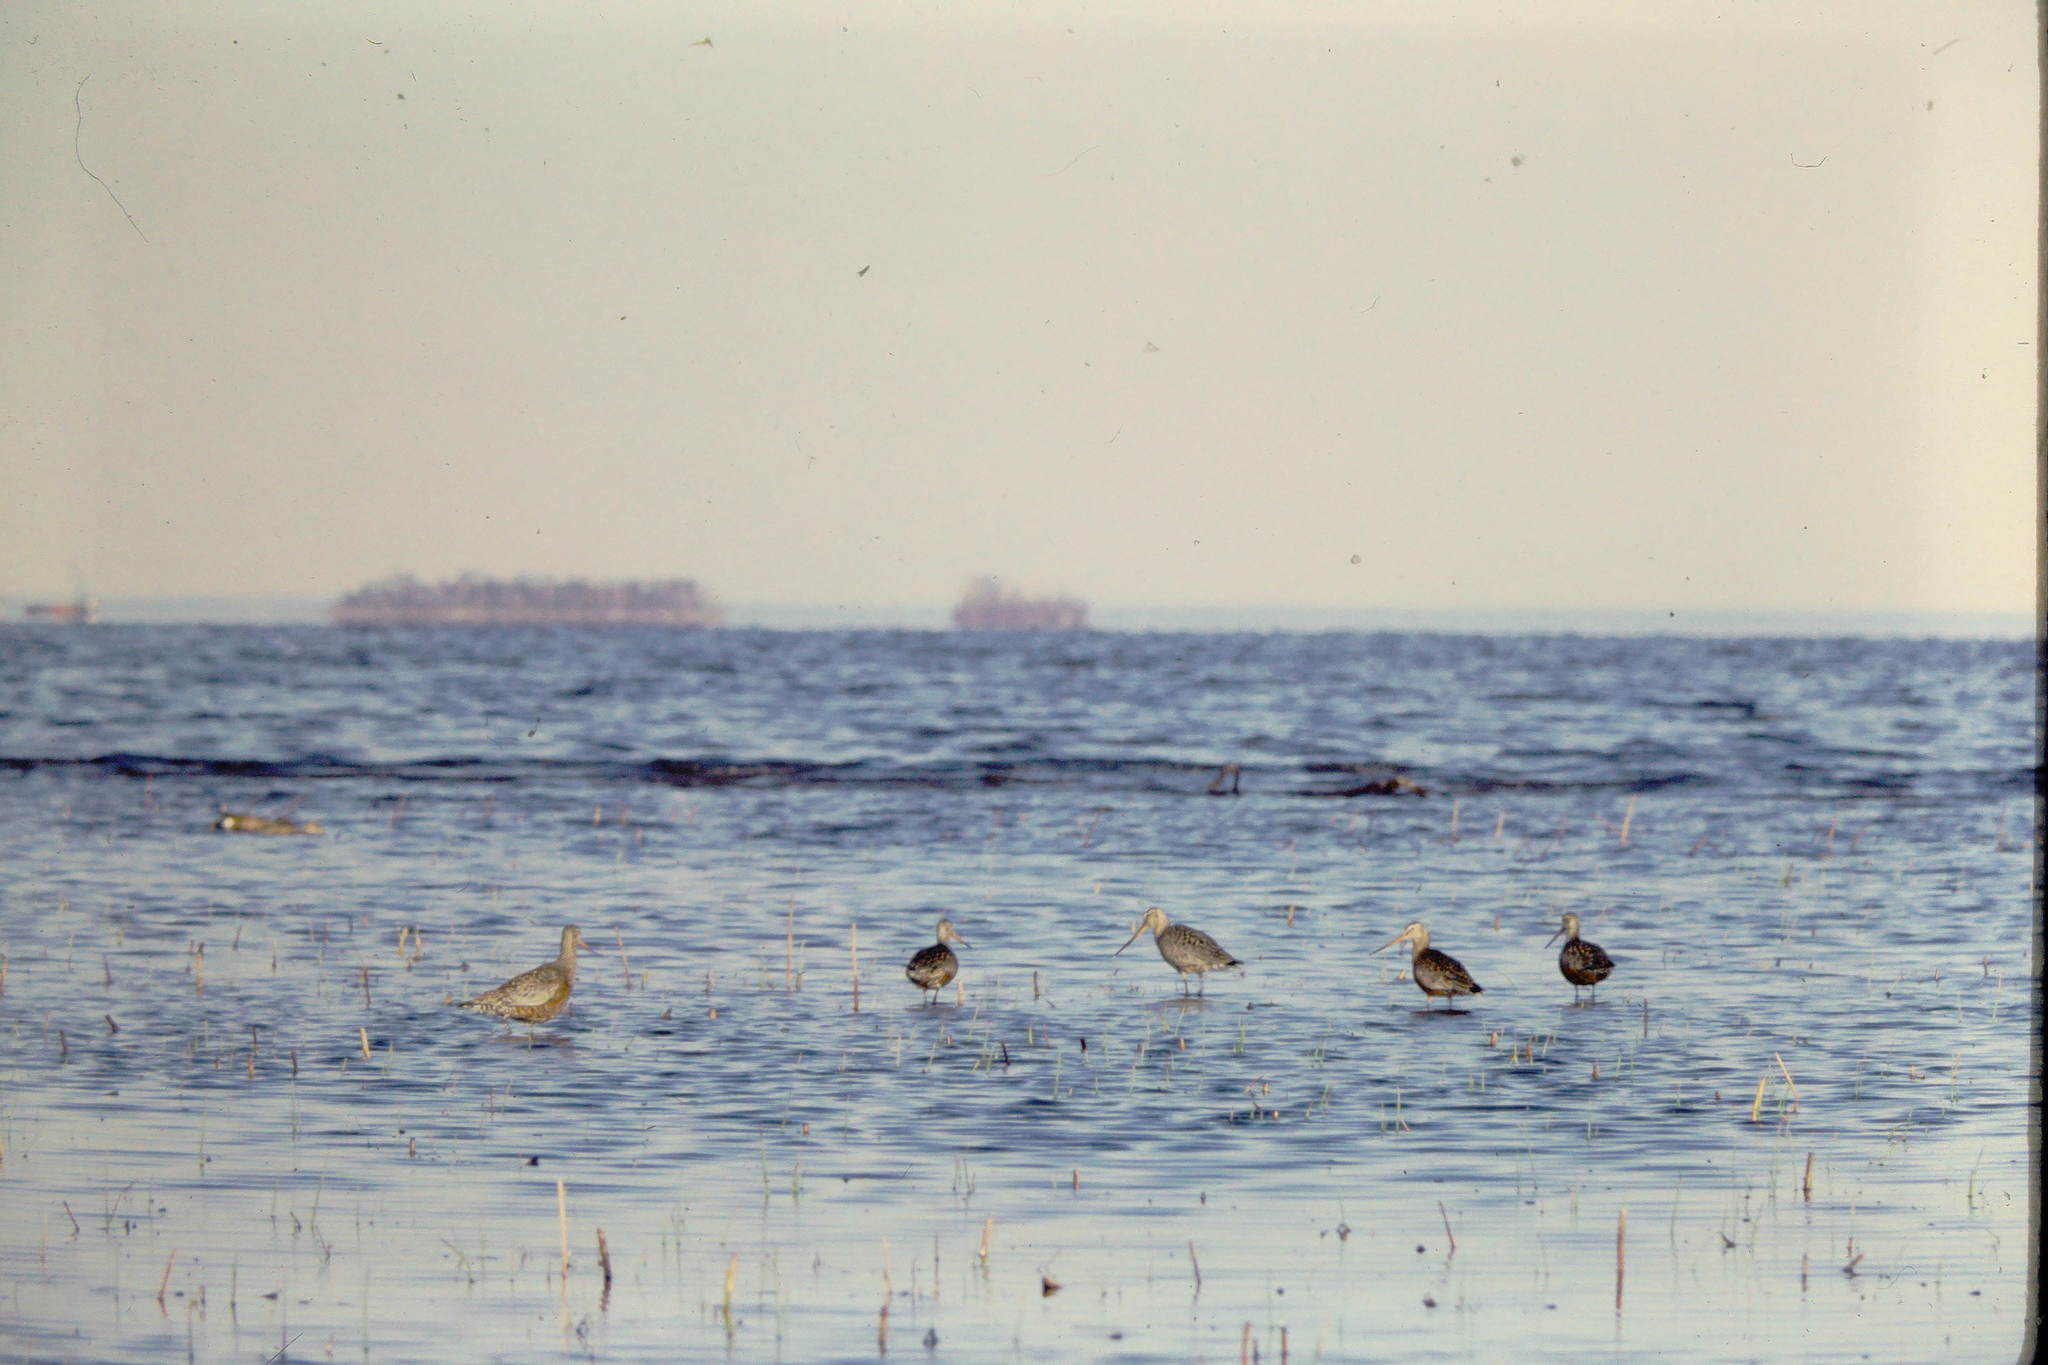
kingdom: Animalia
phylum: Chordata
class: Aves
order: Charadriiformes
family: Scolopacidae
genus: Limosa
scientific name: Limosa haemastica
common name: Hudsonian godwit
